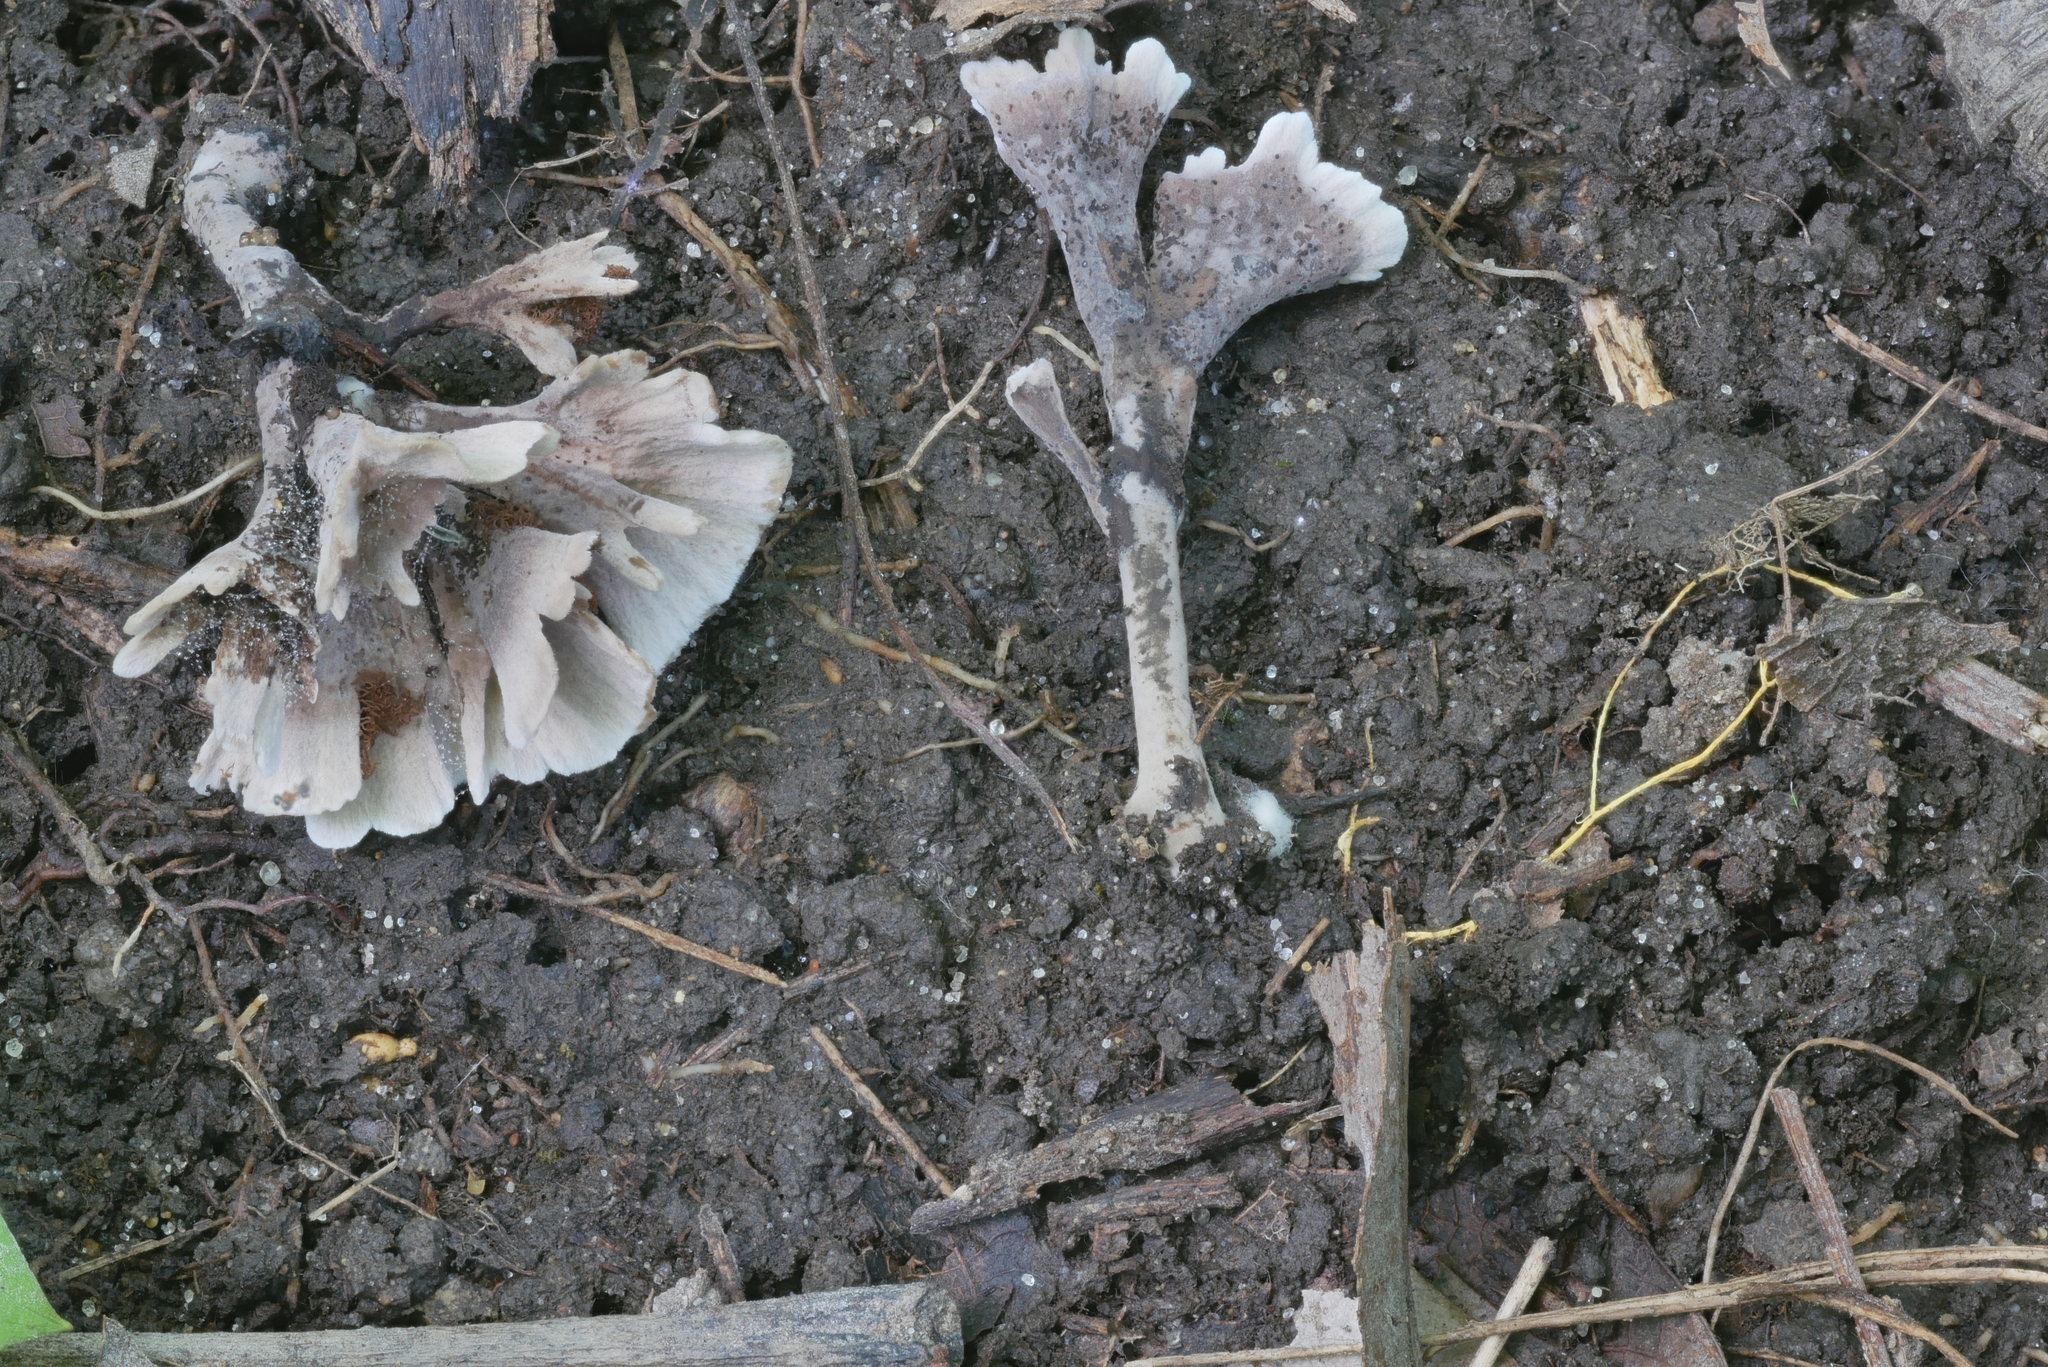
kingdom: Fungi
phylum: Basidiomycota
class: Agaricomycetes
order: Thelephorales
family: Thelephoraceae
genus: Thelephora
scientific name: Thelephora palmata
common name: Stinking earthfan
